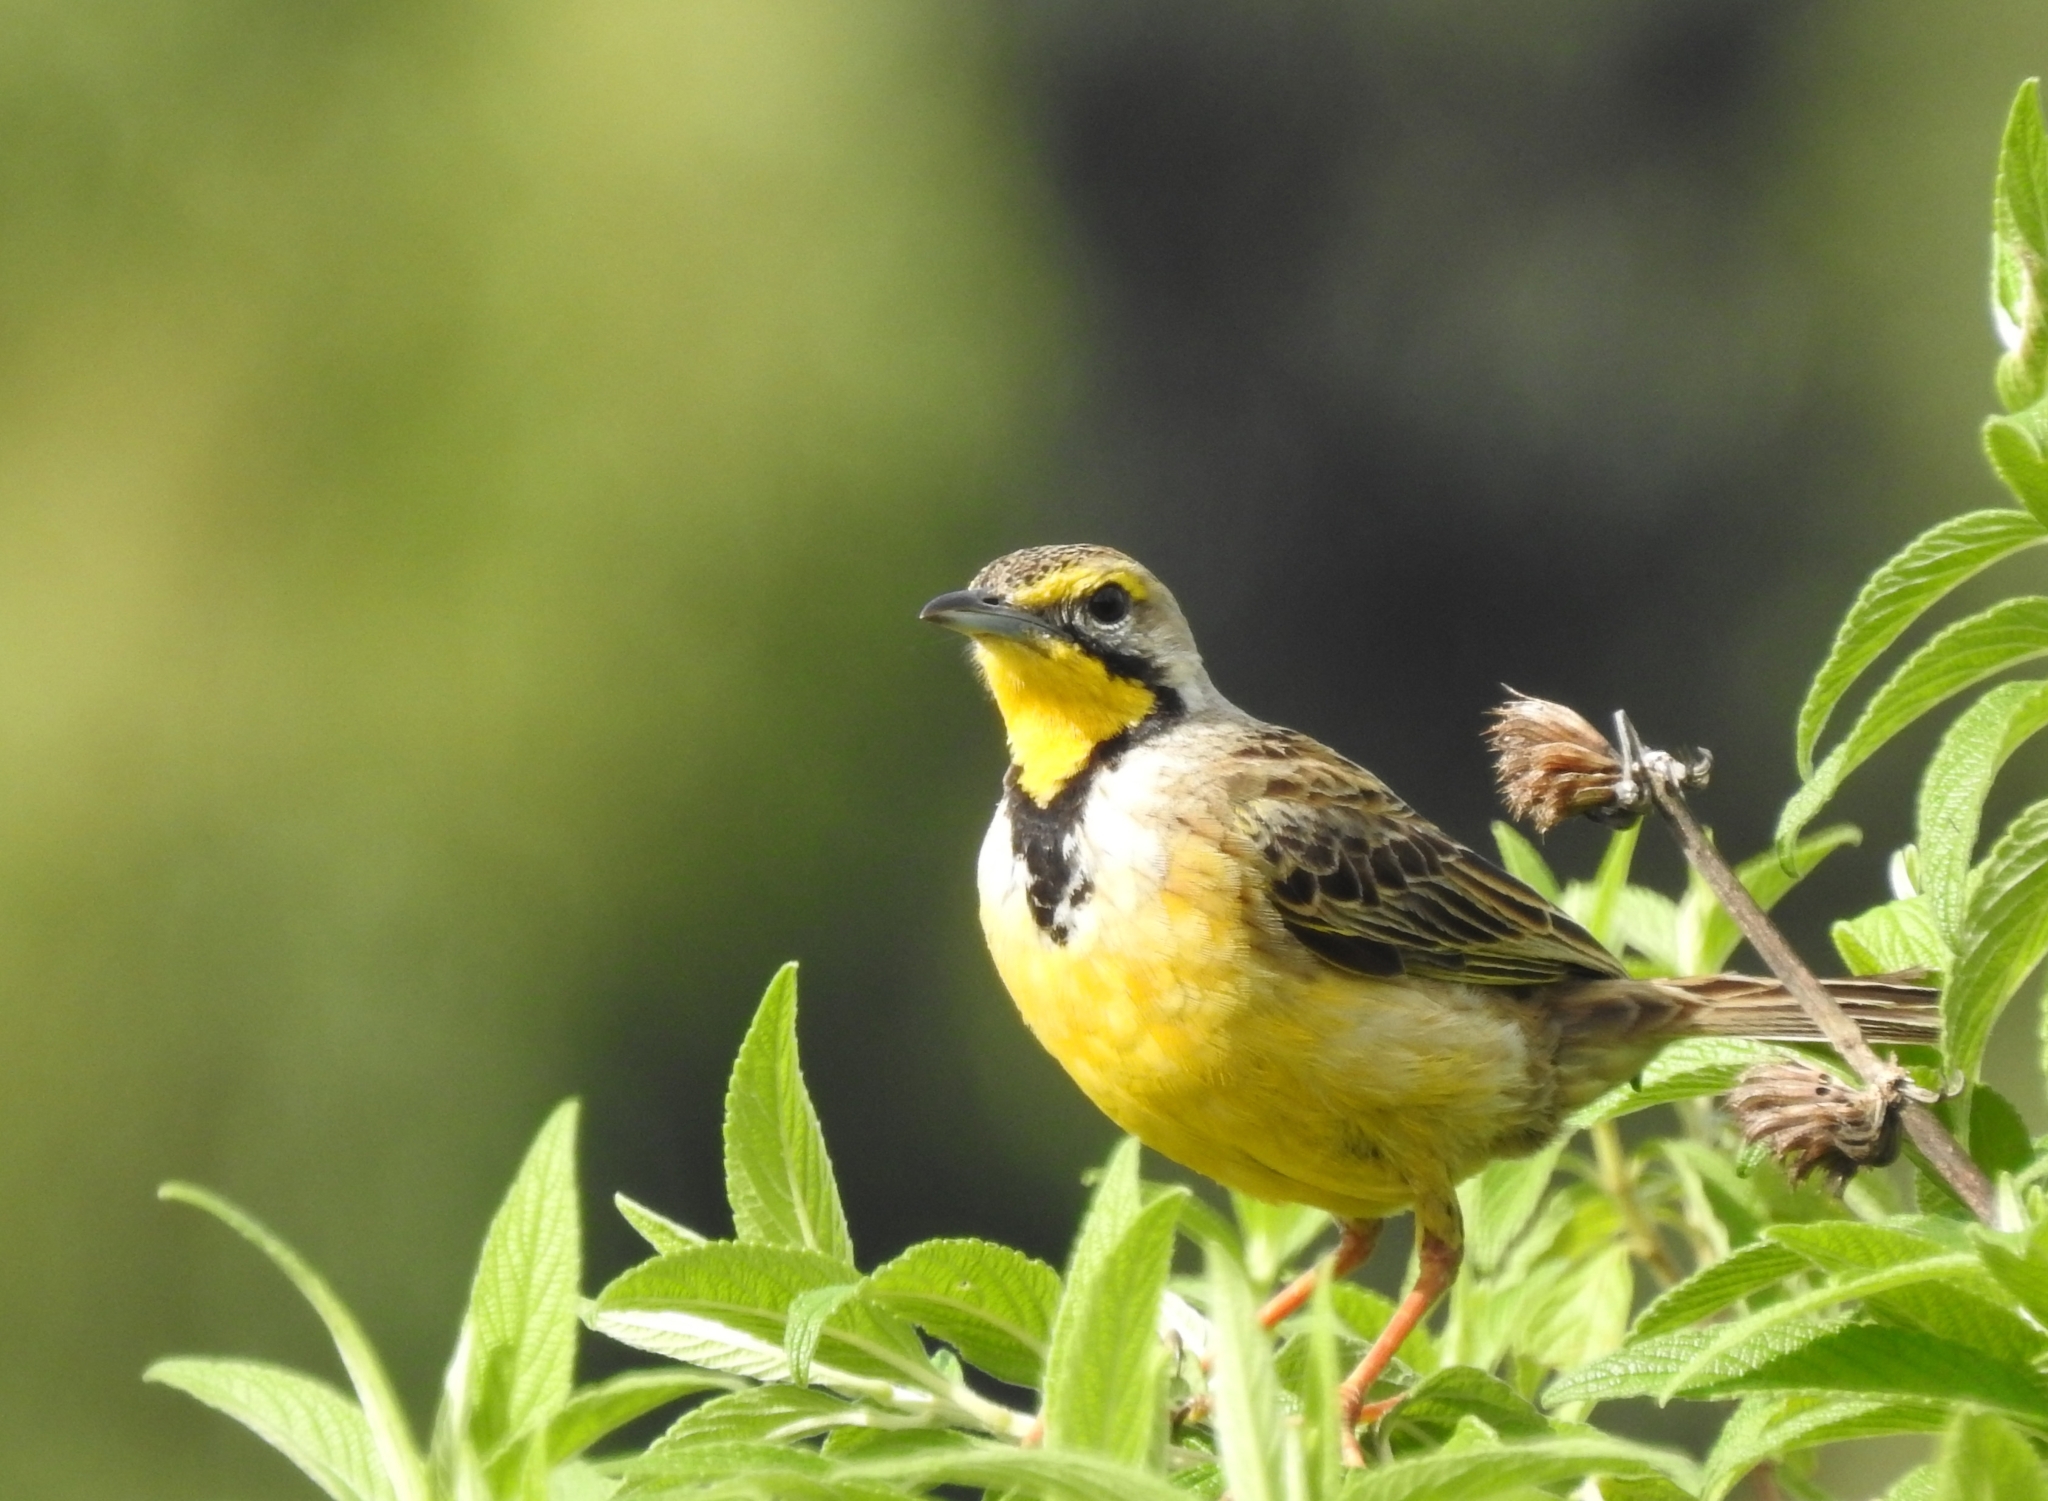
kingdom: Animalia
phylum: Chordata
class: Aves
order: Passeriformes
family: Motacillidae
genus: Macronyx
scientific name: Macronyx croceus
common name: Yellow-throated longclaw
